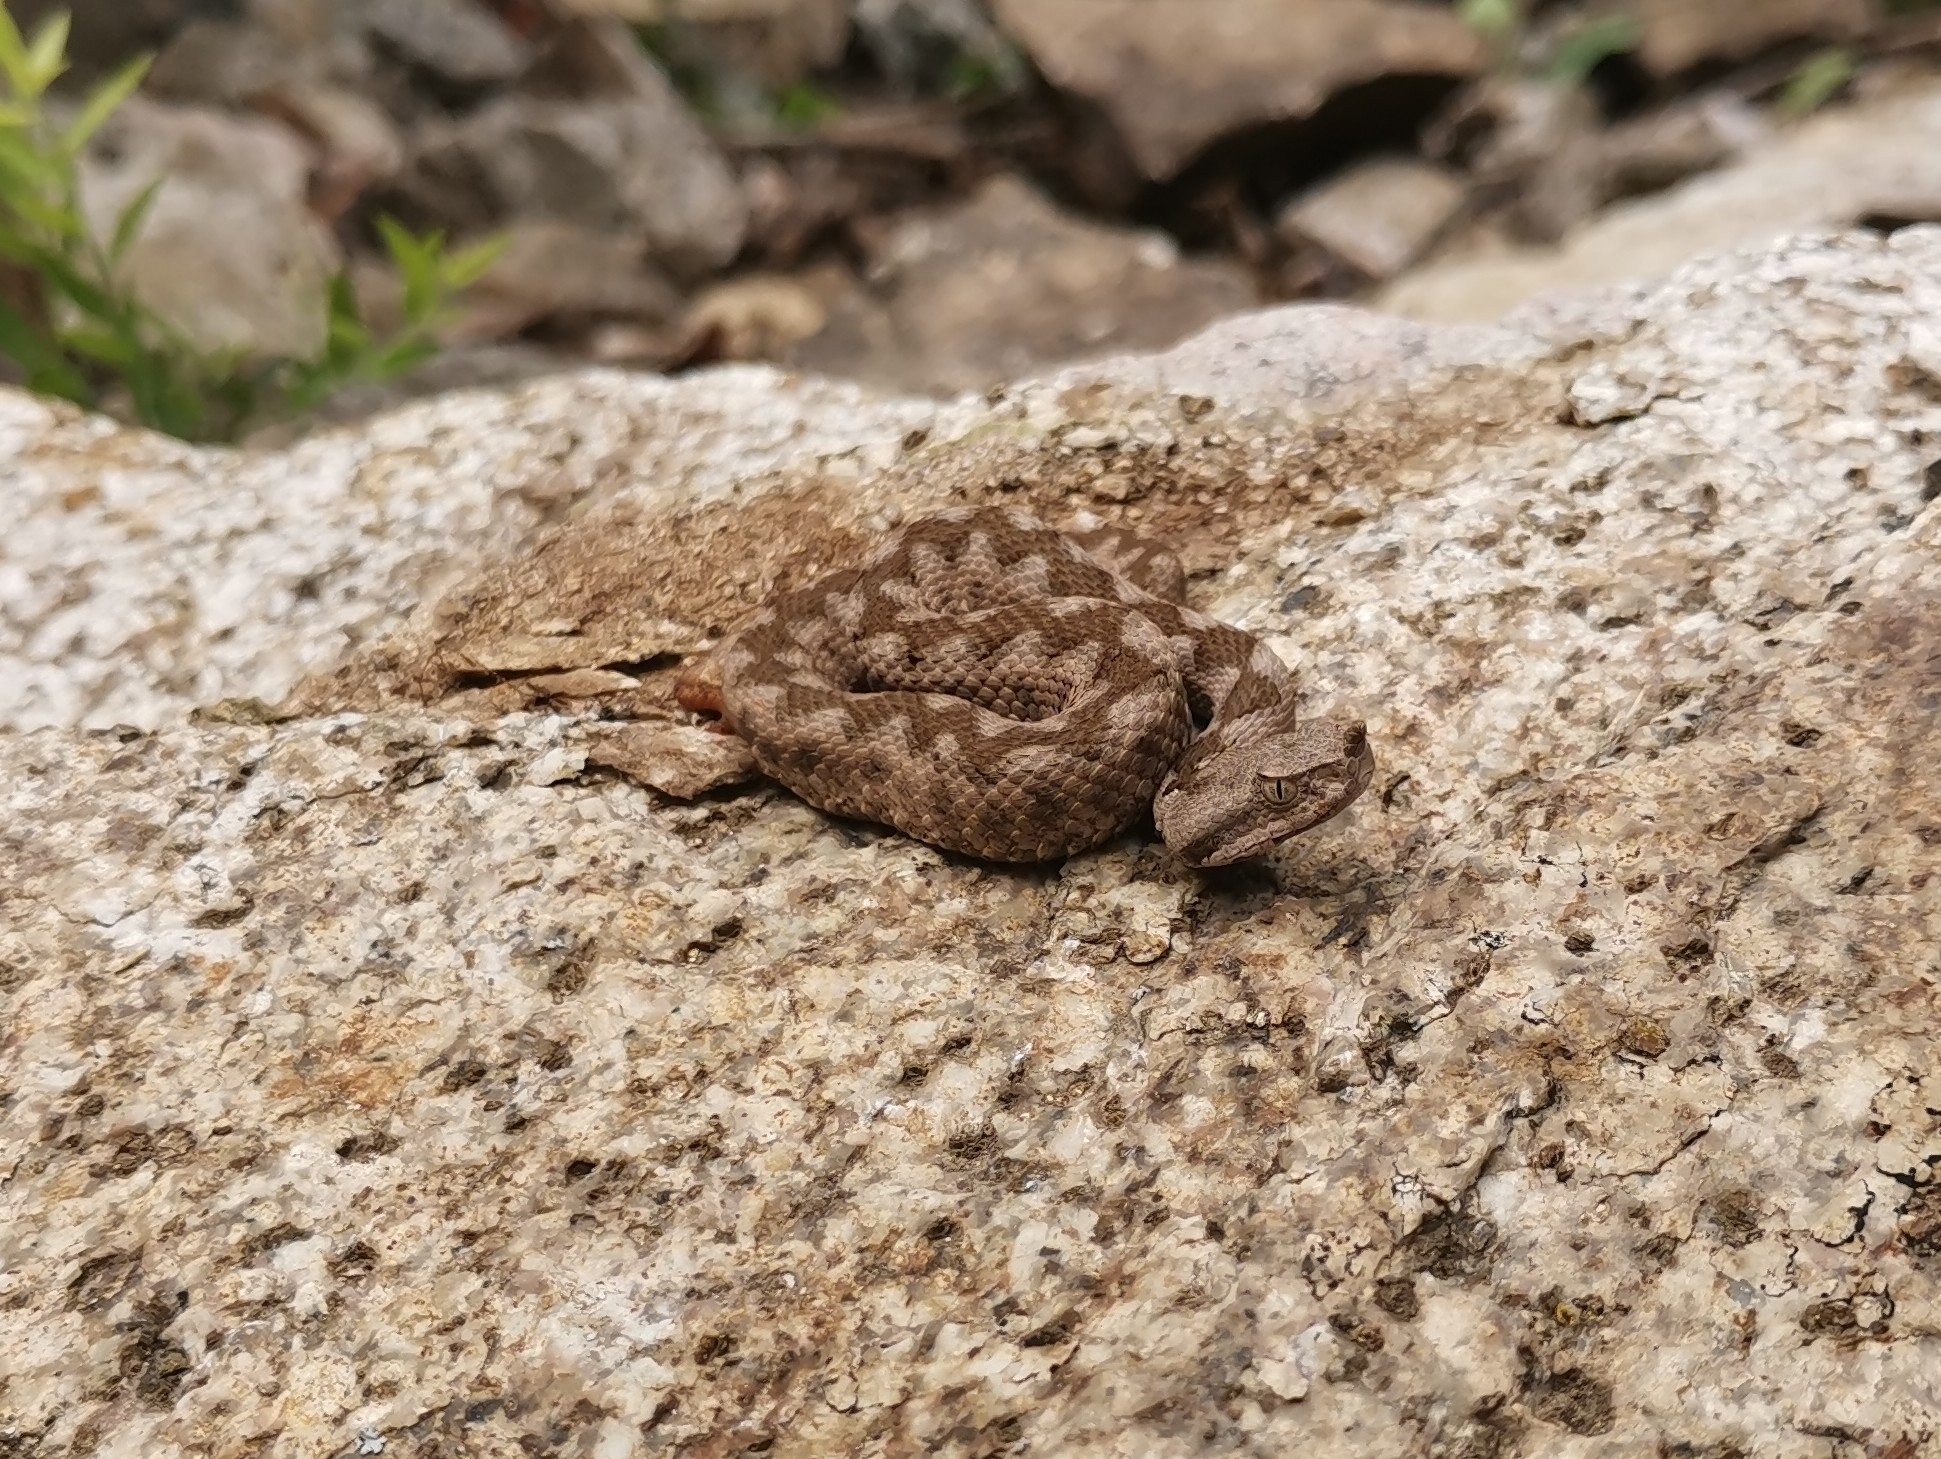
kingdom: Animalia
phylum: Chordata
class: Squamata
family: Viperidae
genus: Vipera
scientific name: Vipera ammodytes
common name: Sand viper
